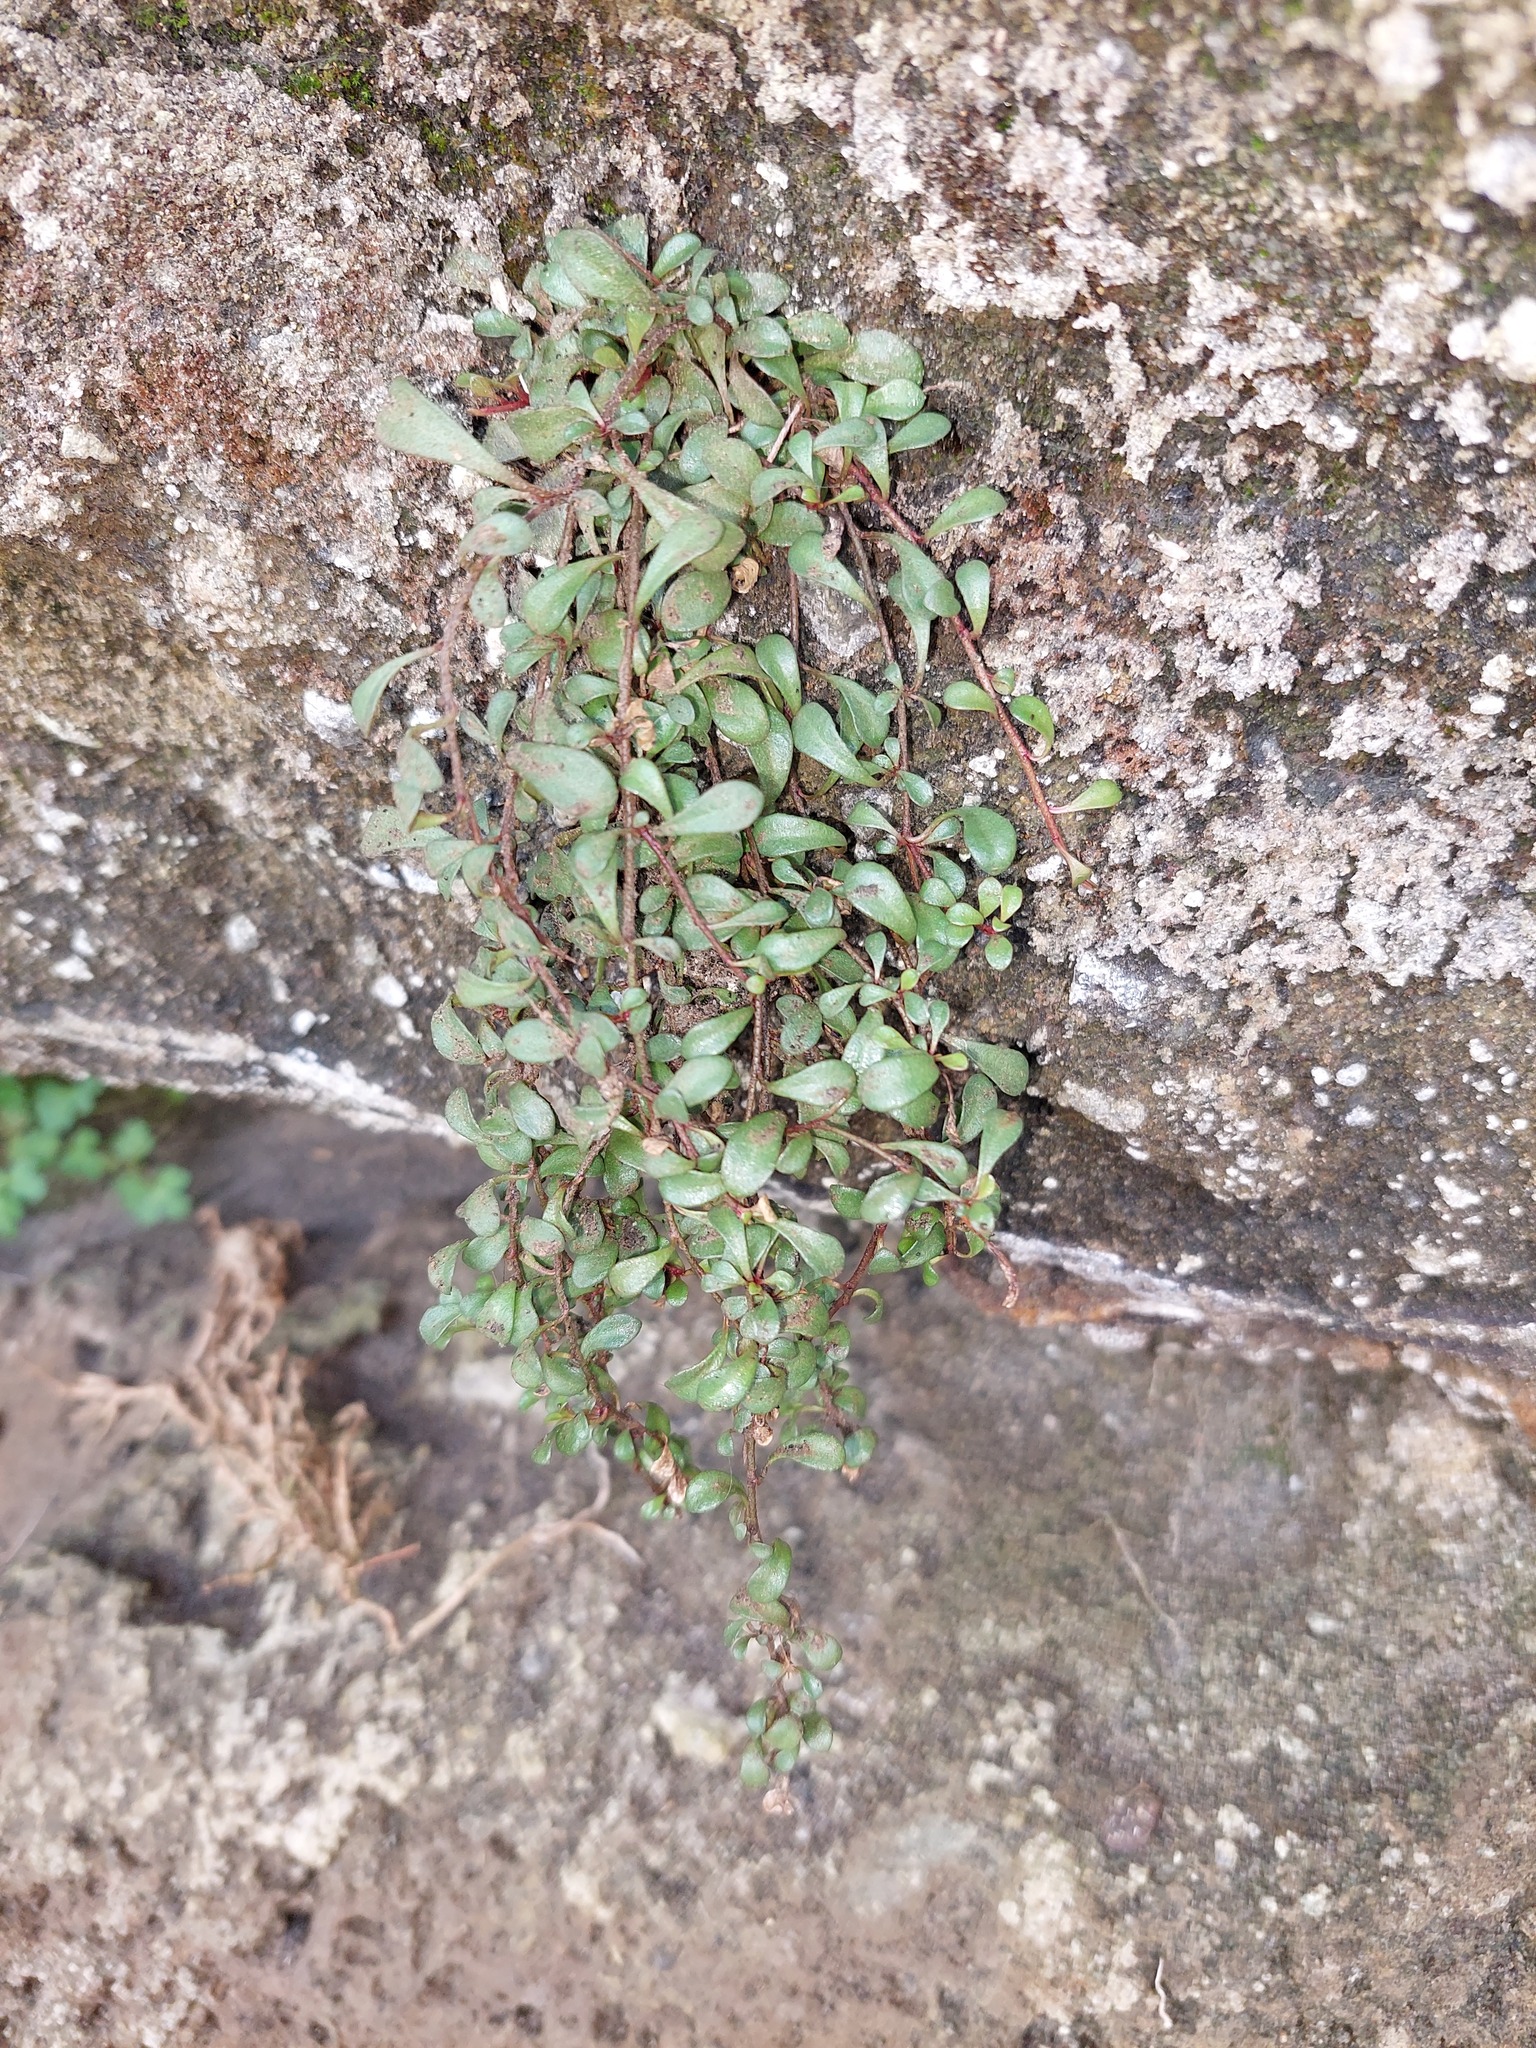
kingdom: Plantae
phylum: Tracheophyta
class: Magnoliopsida
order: Ericales
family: Primulaceae
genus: Samolus
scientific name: Samolus repens
